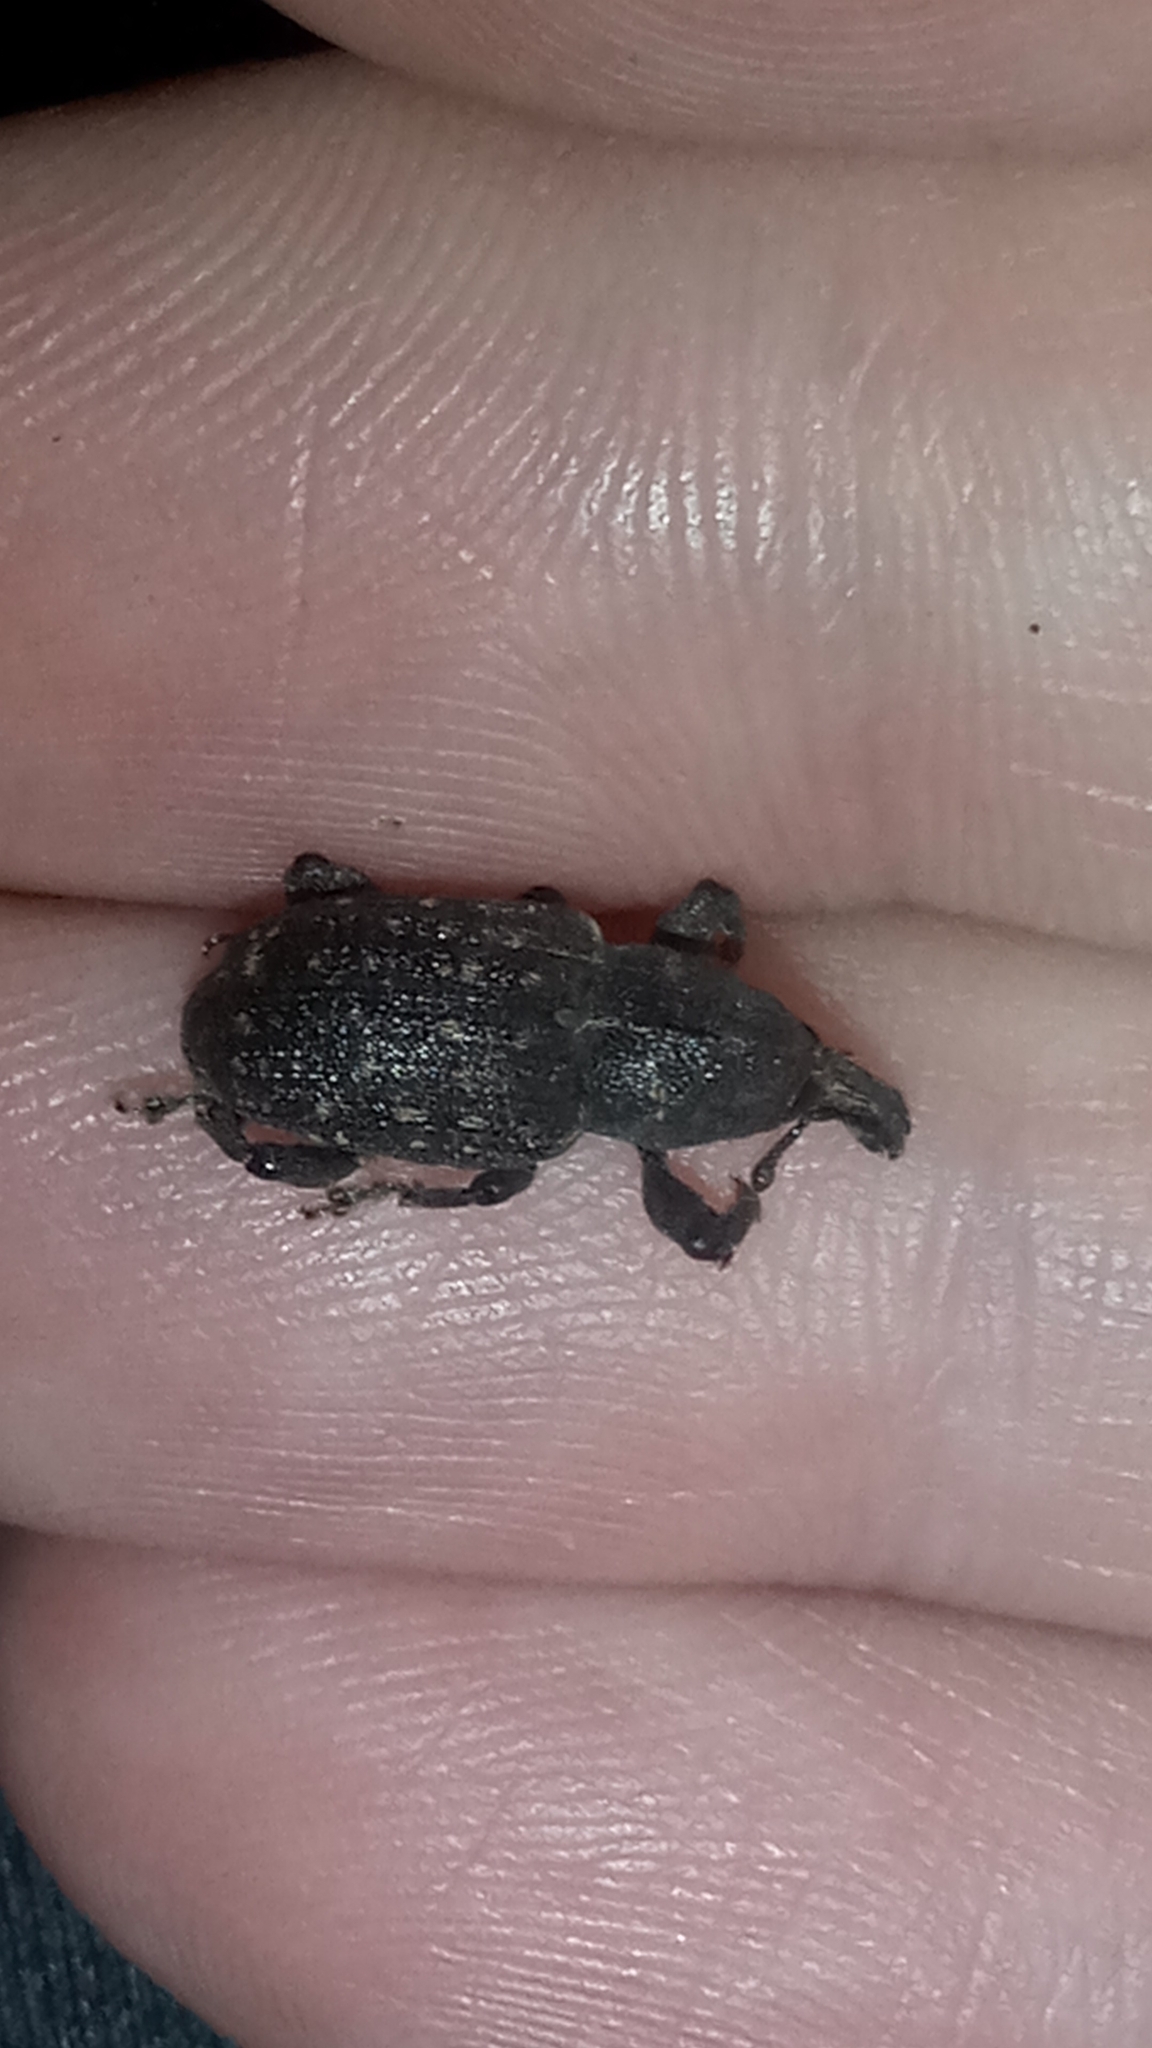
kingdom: Animalia
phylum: Arthropoda
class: Insecta
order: Coleoptera
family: Curculionidae
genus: Pachylobius
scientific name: Pachylobius picivorus
